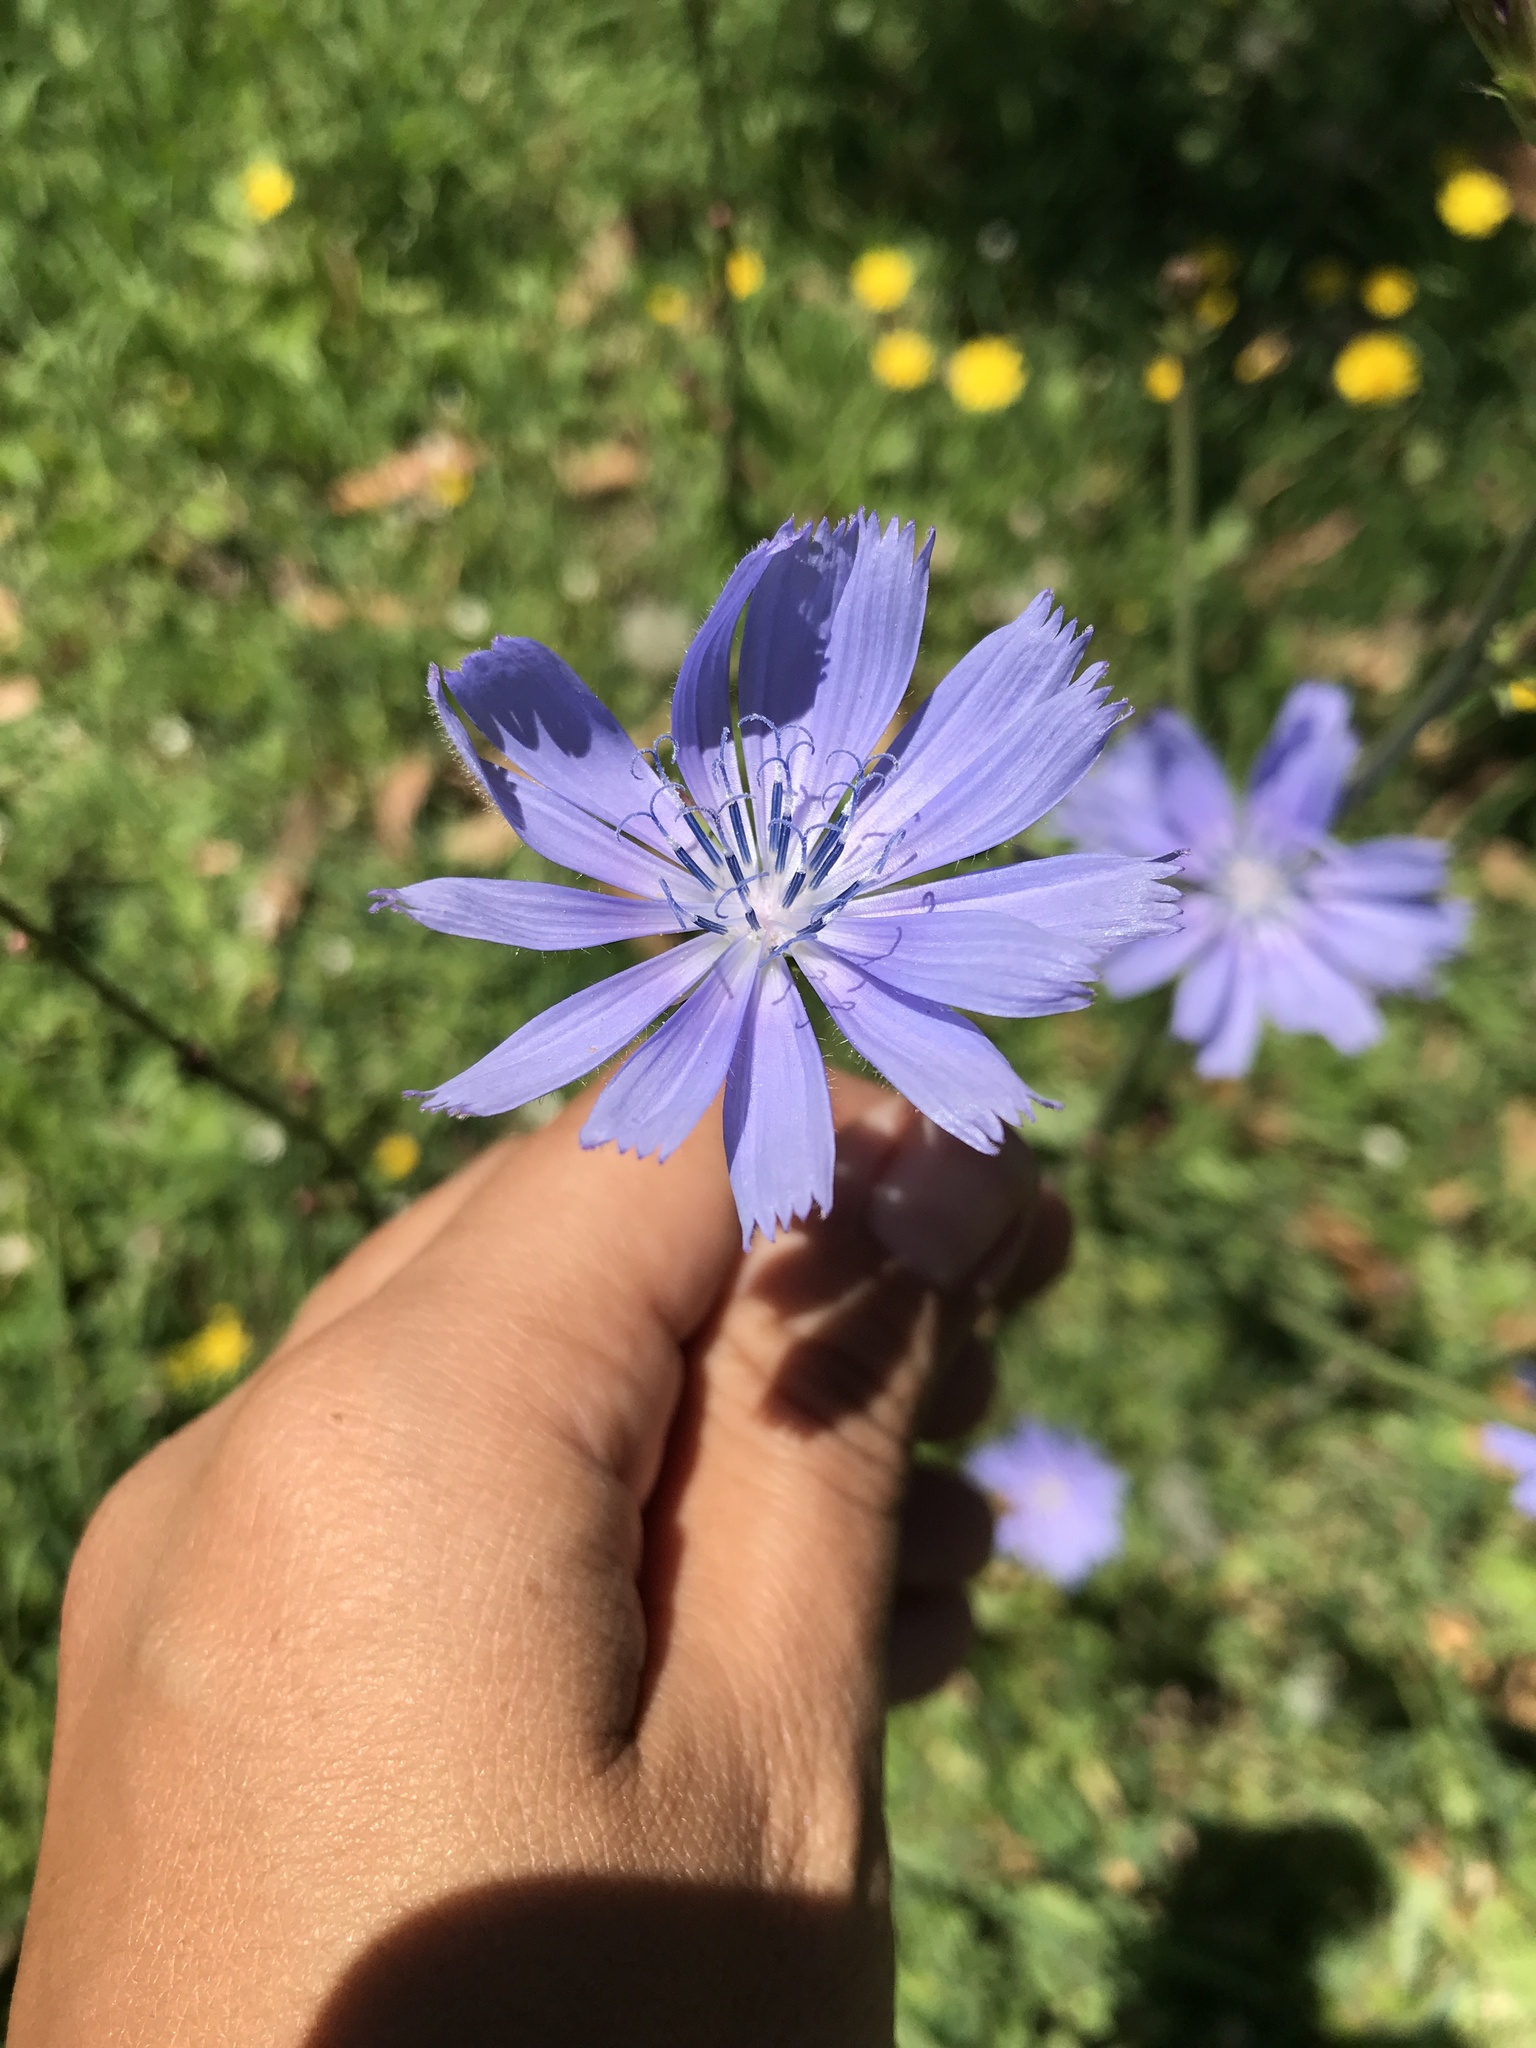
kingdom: Plantae
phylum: Tracheophyta
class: Magnoliopsida
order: Asterales
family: Asteraceae
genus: Cichorium
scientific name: Cichorium intybus
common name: Chicory
